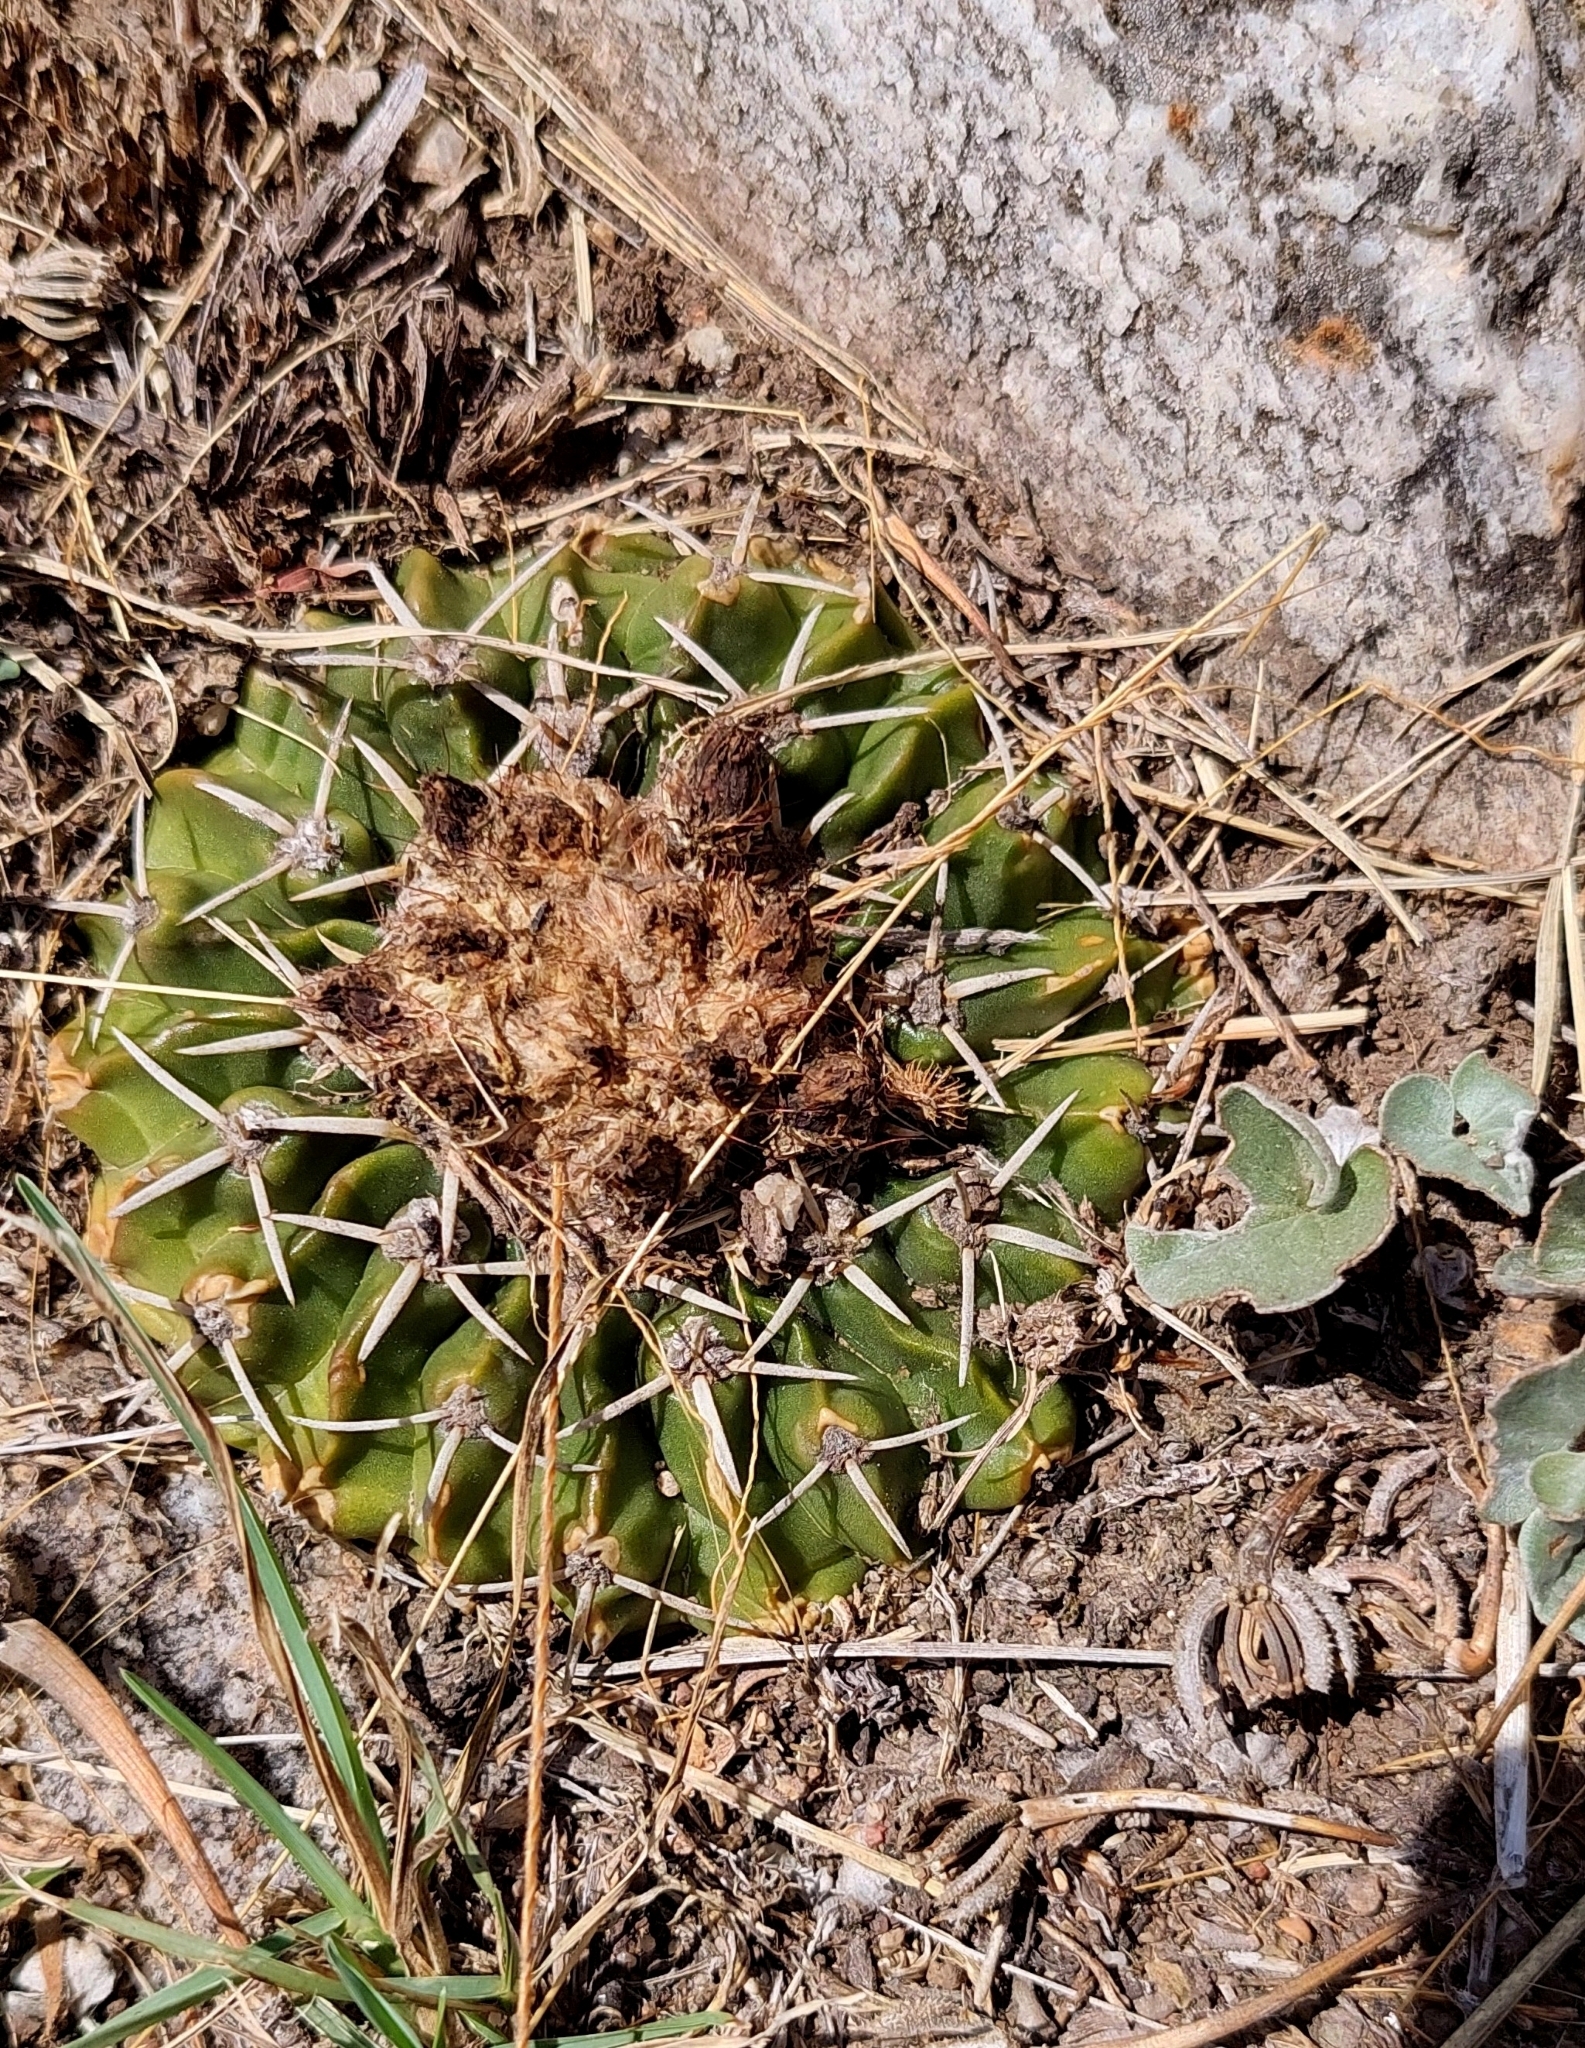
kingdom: Plantae
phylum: Tracheophyta
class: Magnoliopsida
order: Caryophyllales
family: Cactaceae
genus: Parodia
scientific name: Parodia erinacea
